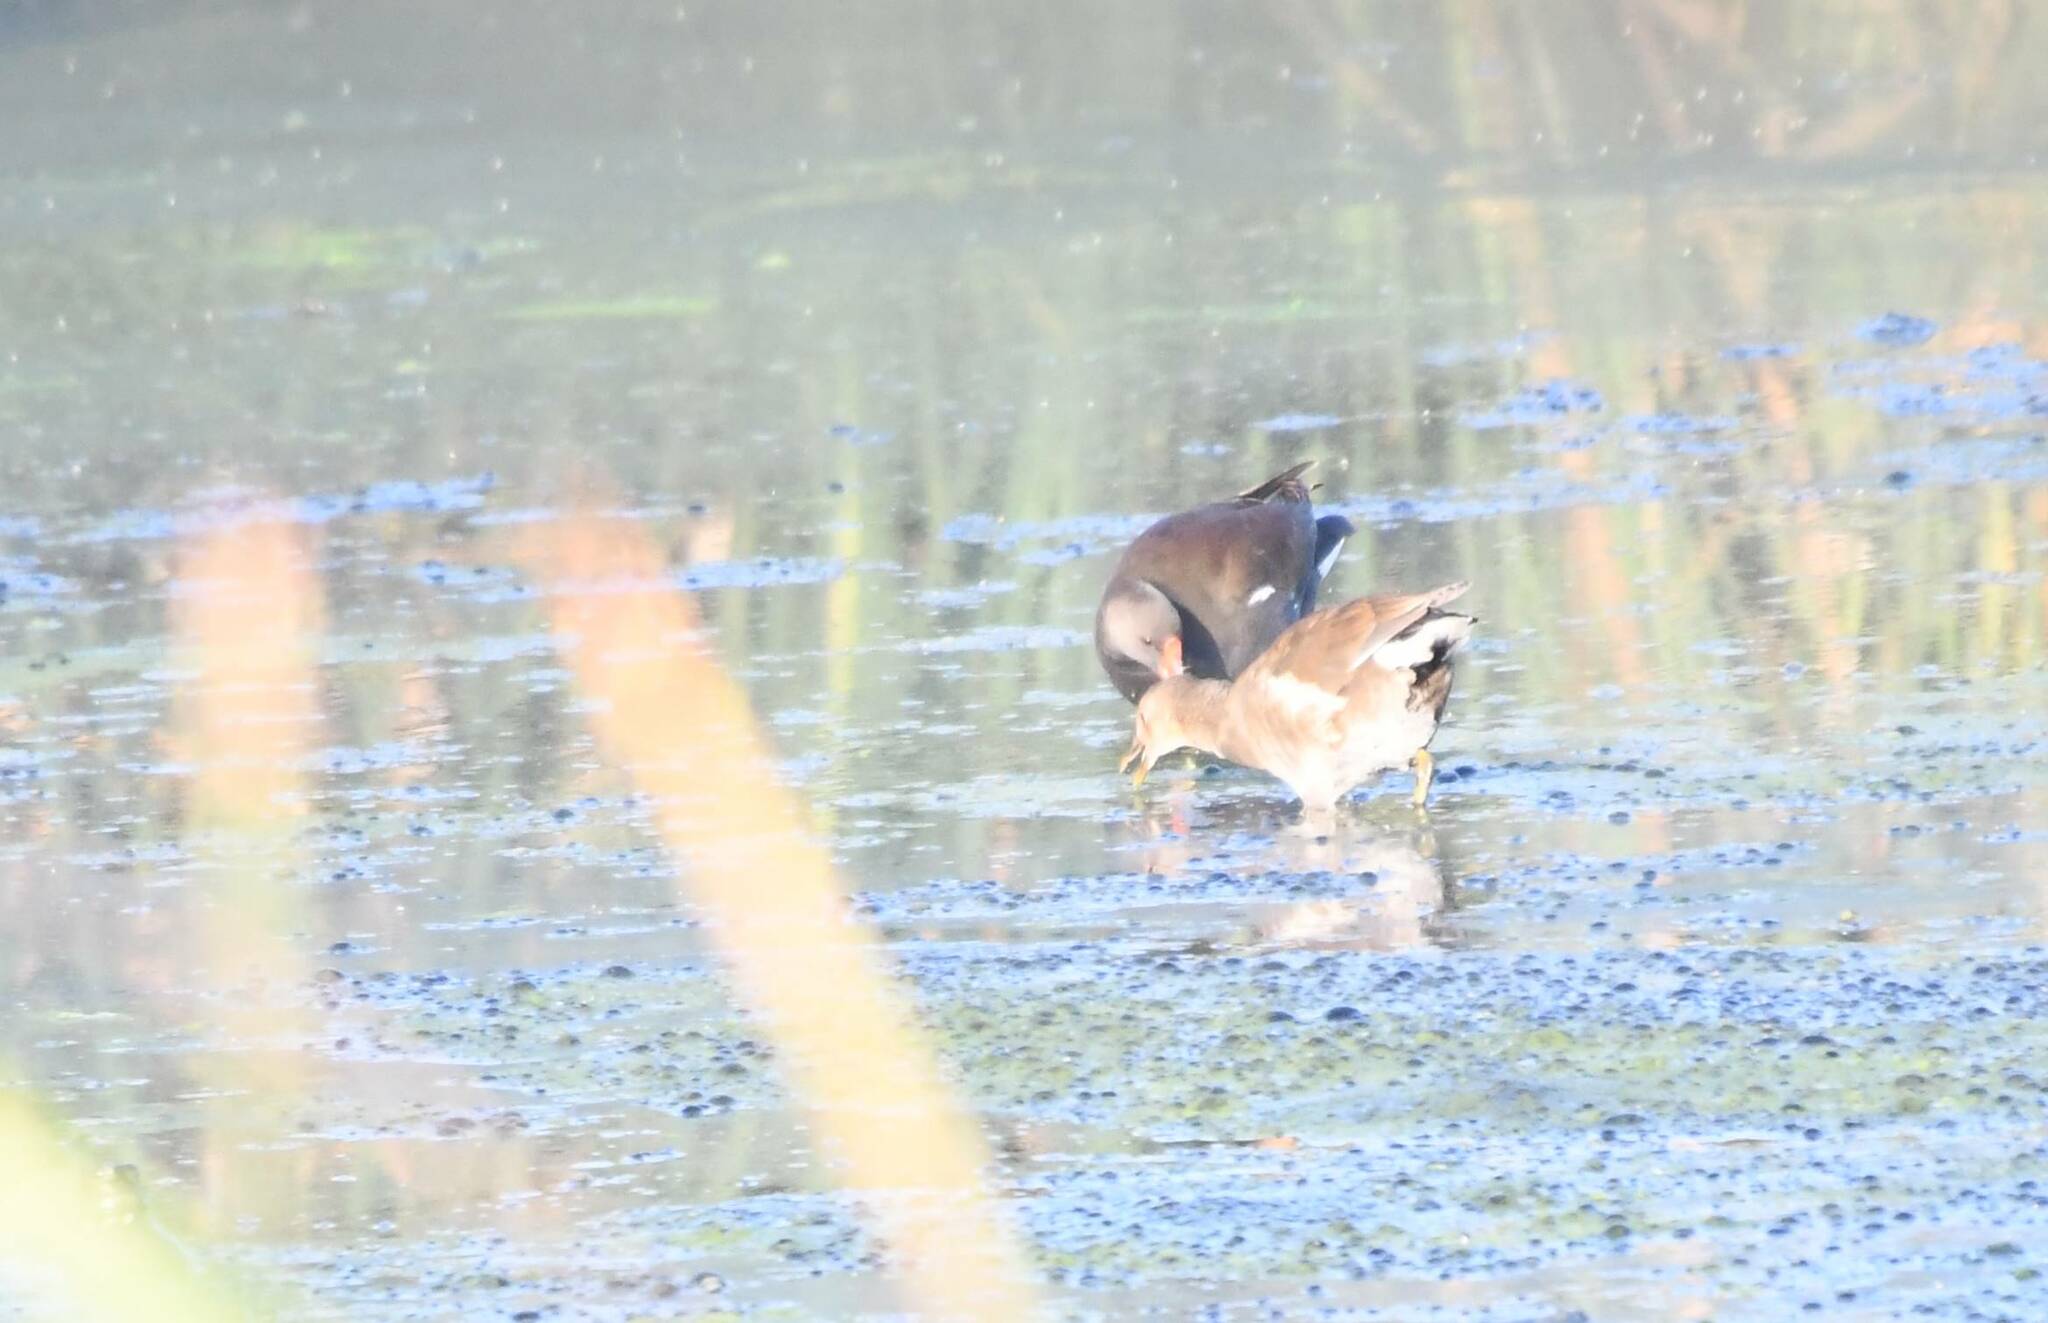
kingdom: Animalia
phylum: Chordata
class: Aves
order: Gruiformes
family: Rallidae
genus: Gallinula
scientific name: Gallinula chloropus
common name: Common moorhen
